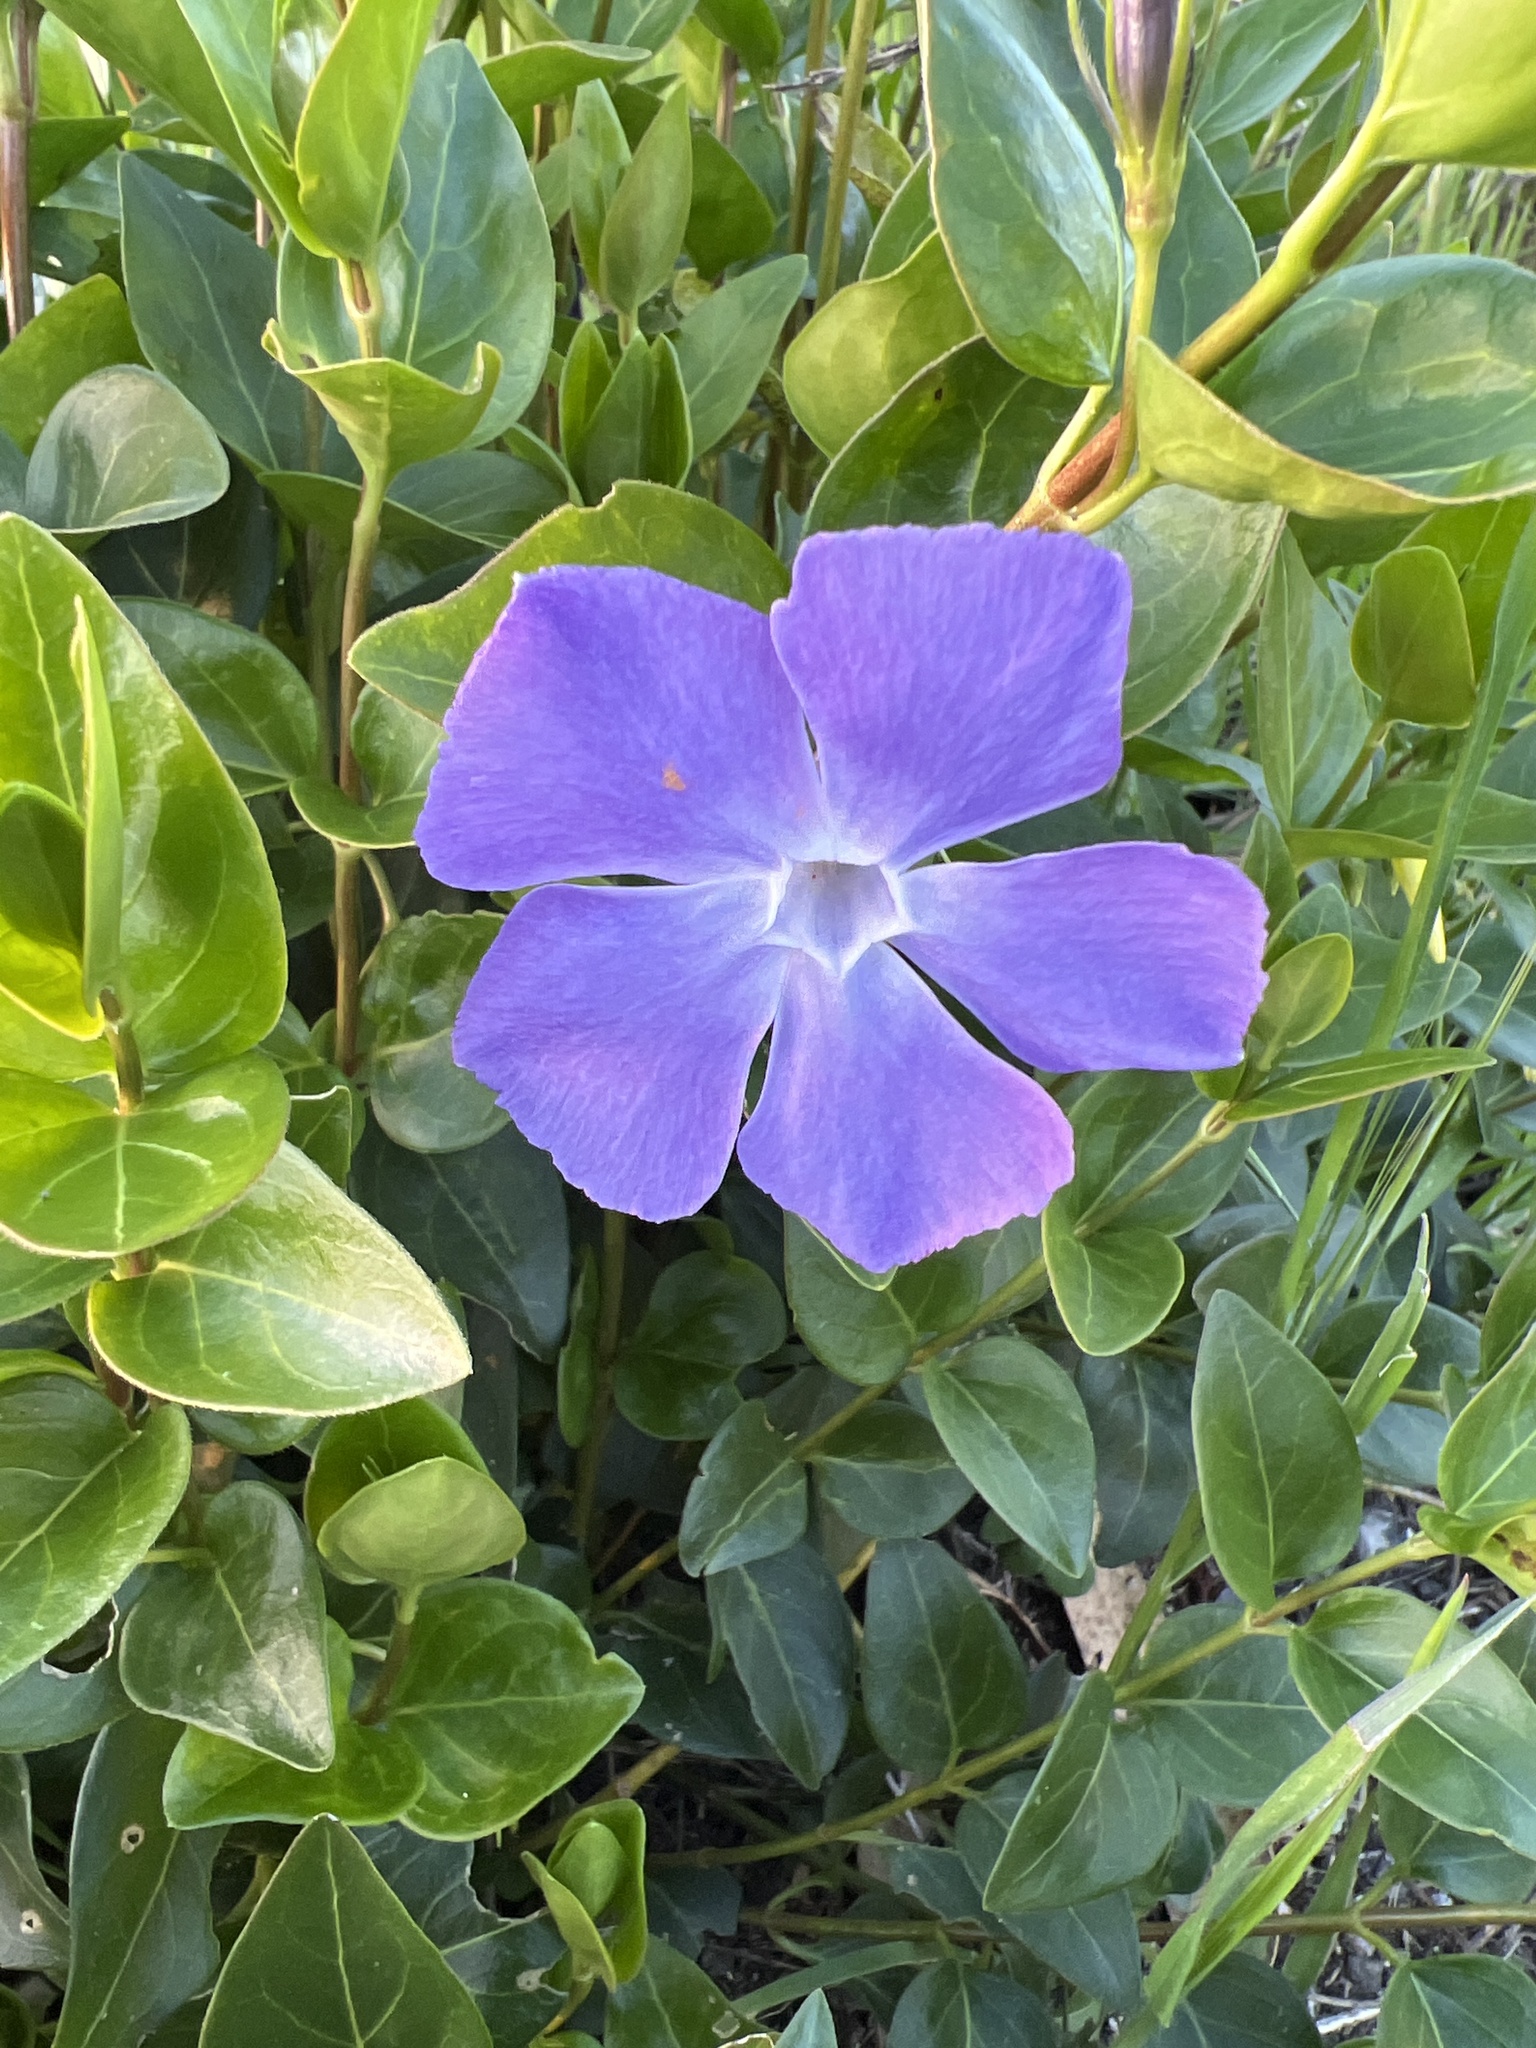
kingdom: Plantae
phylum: Tracheophyta
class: Magnoliopsida
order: Gentianales
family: Apocynaceae
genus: Vinca
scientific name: Vinca major
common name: Greater periwinkle
